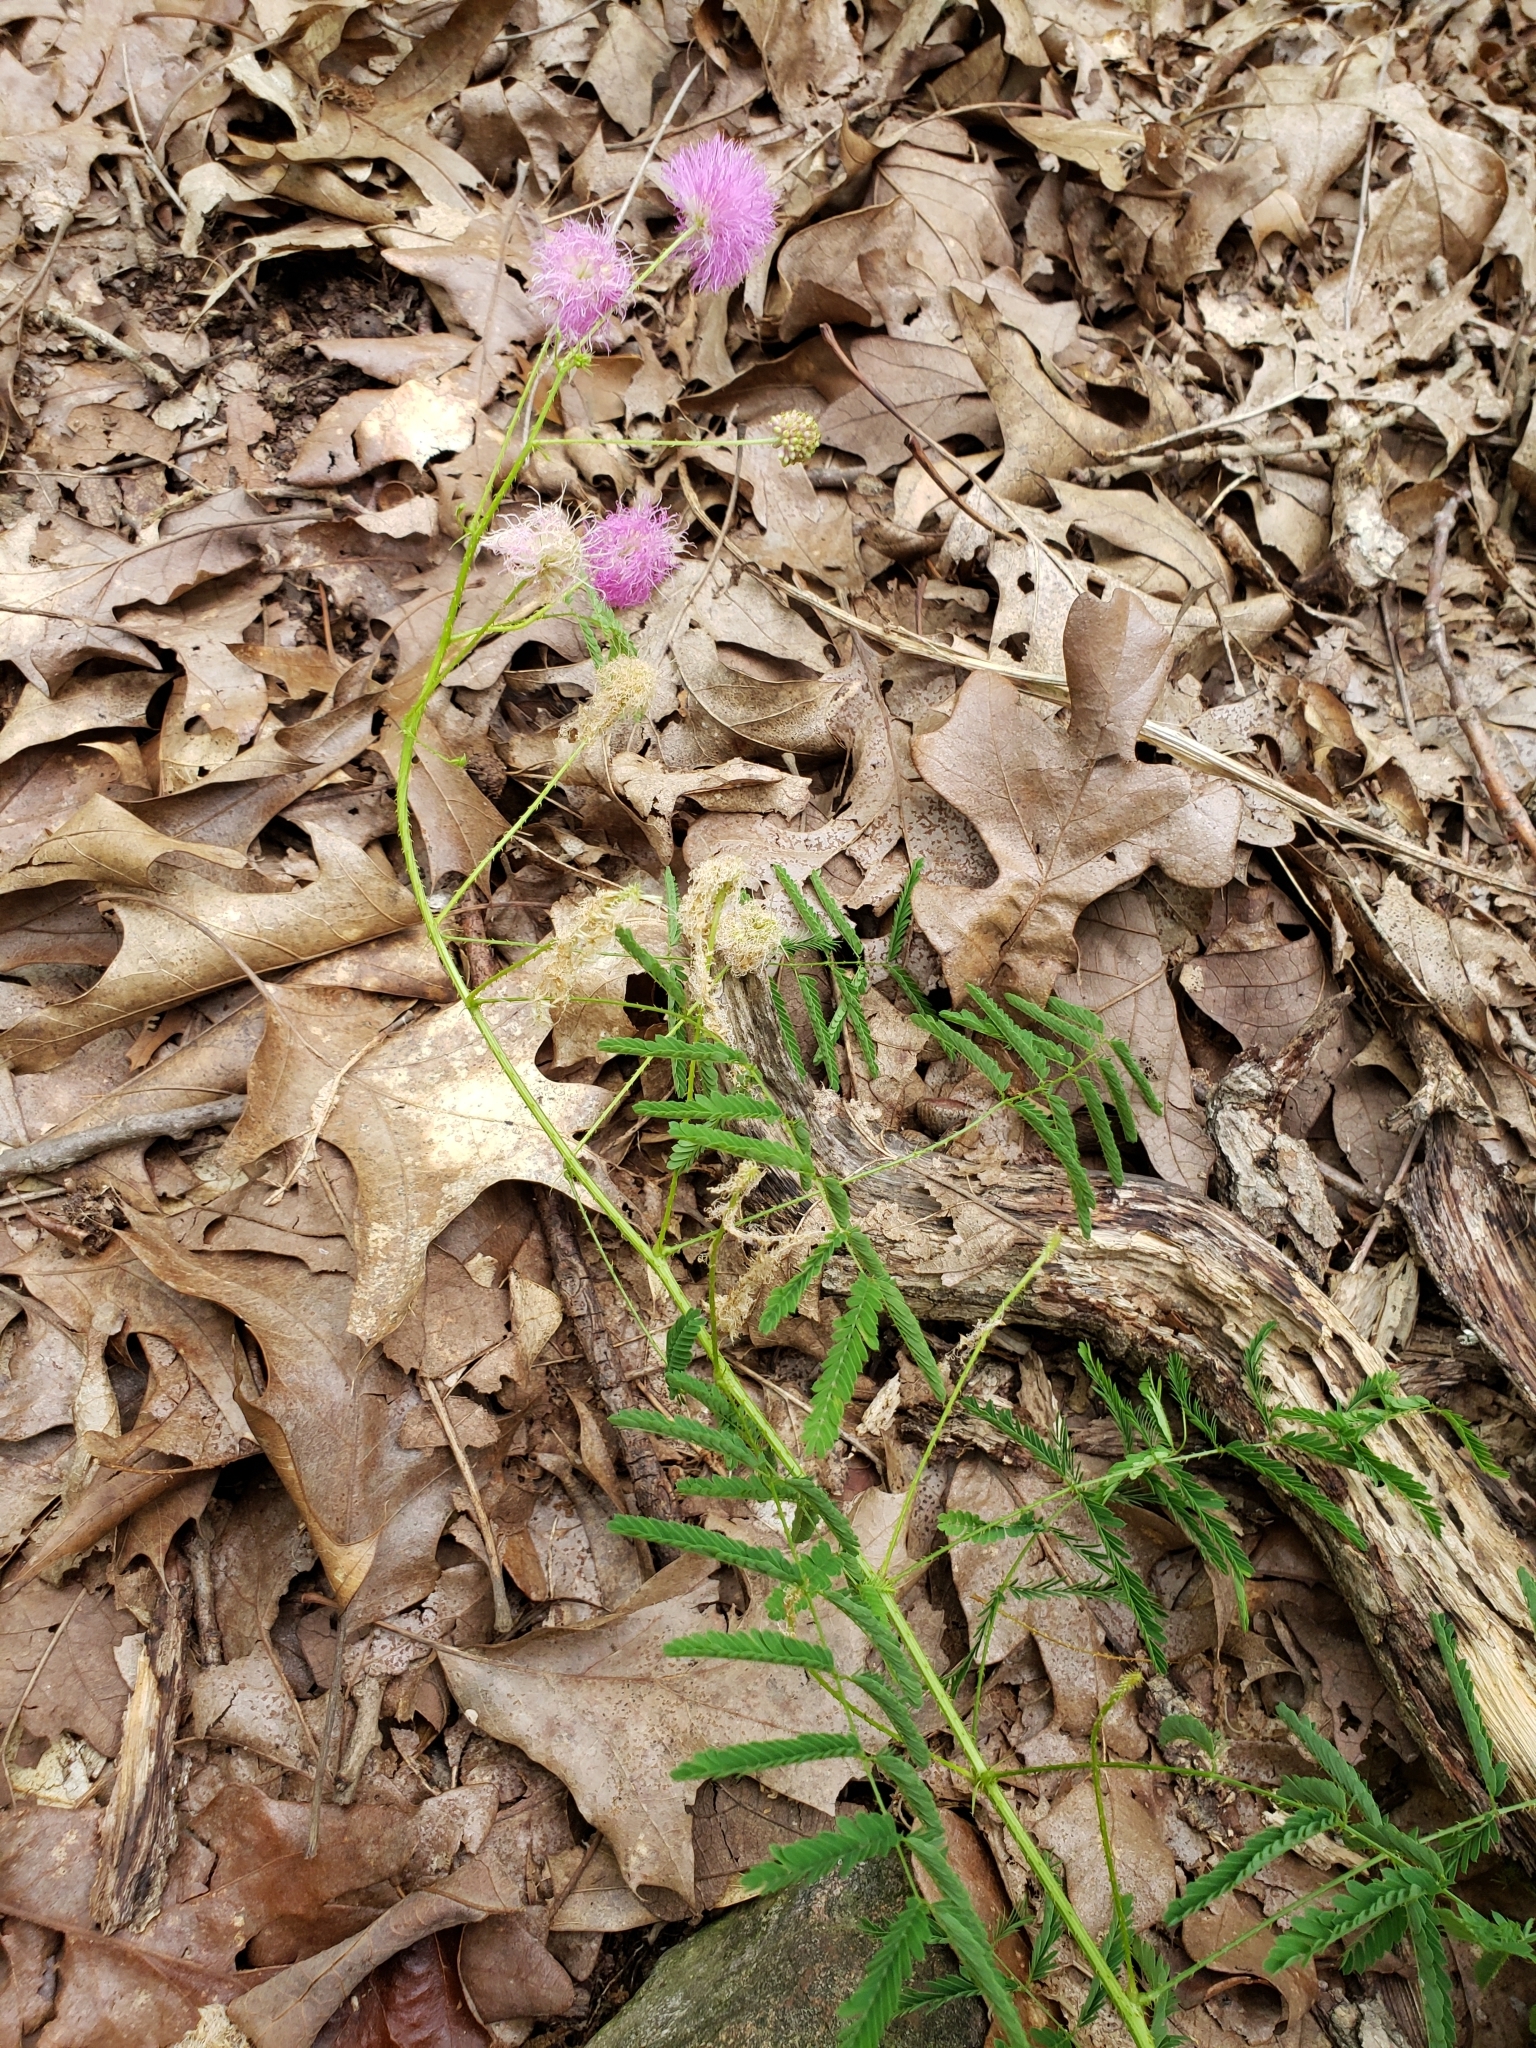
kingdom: Plantae
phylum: Tracheophyta
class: Magnoliopsida
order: Fabales
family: Fabaceae
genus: Mimosa
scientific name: Mimosa quadrivalvis
